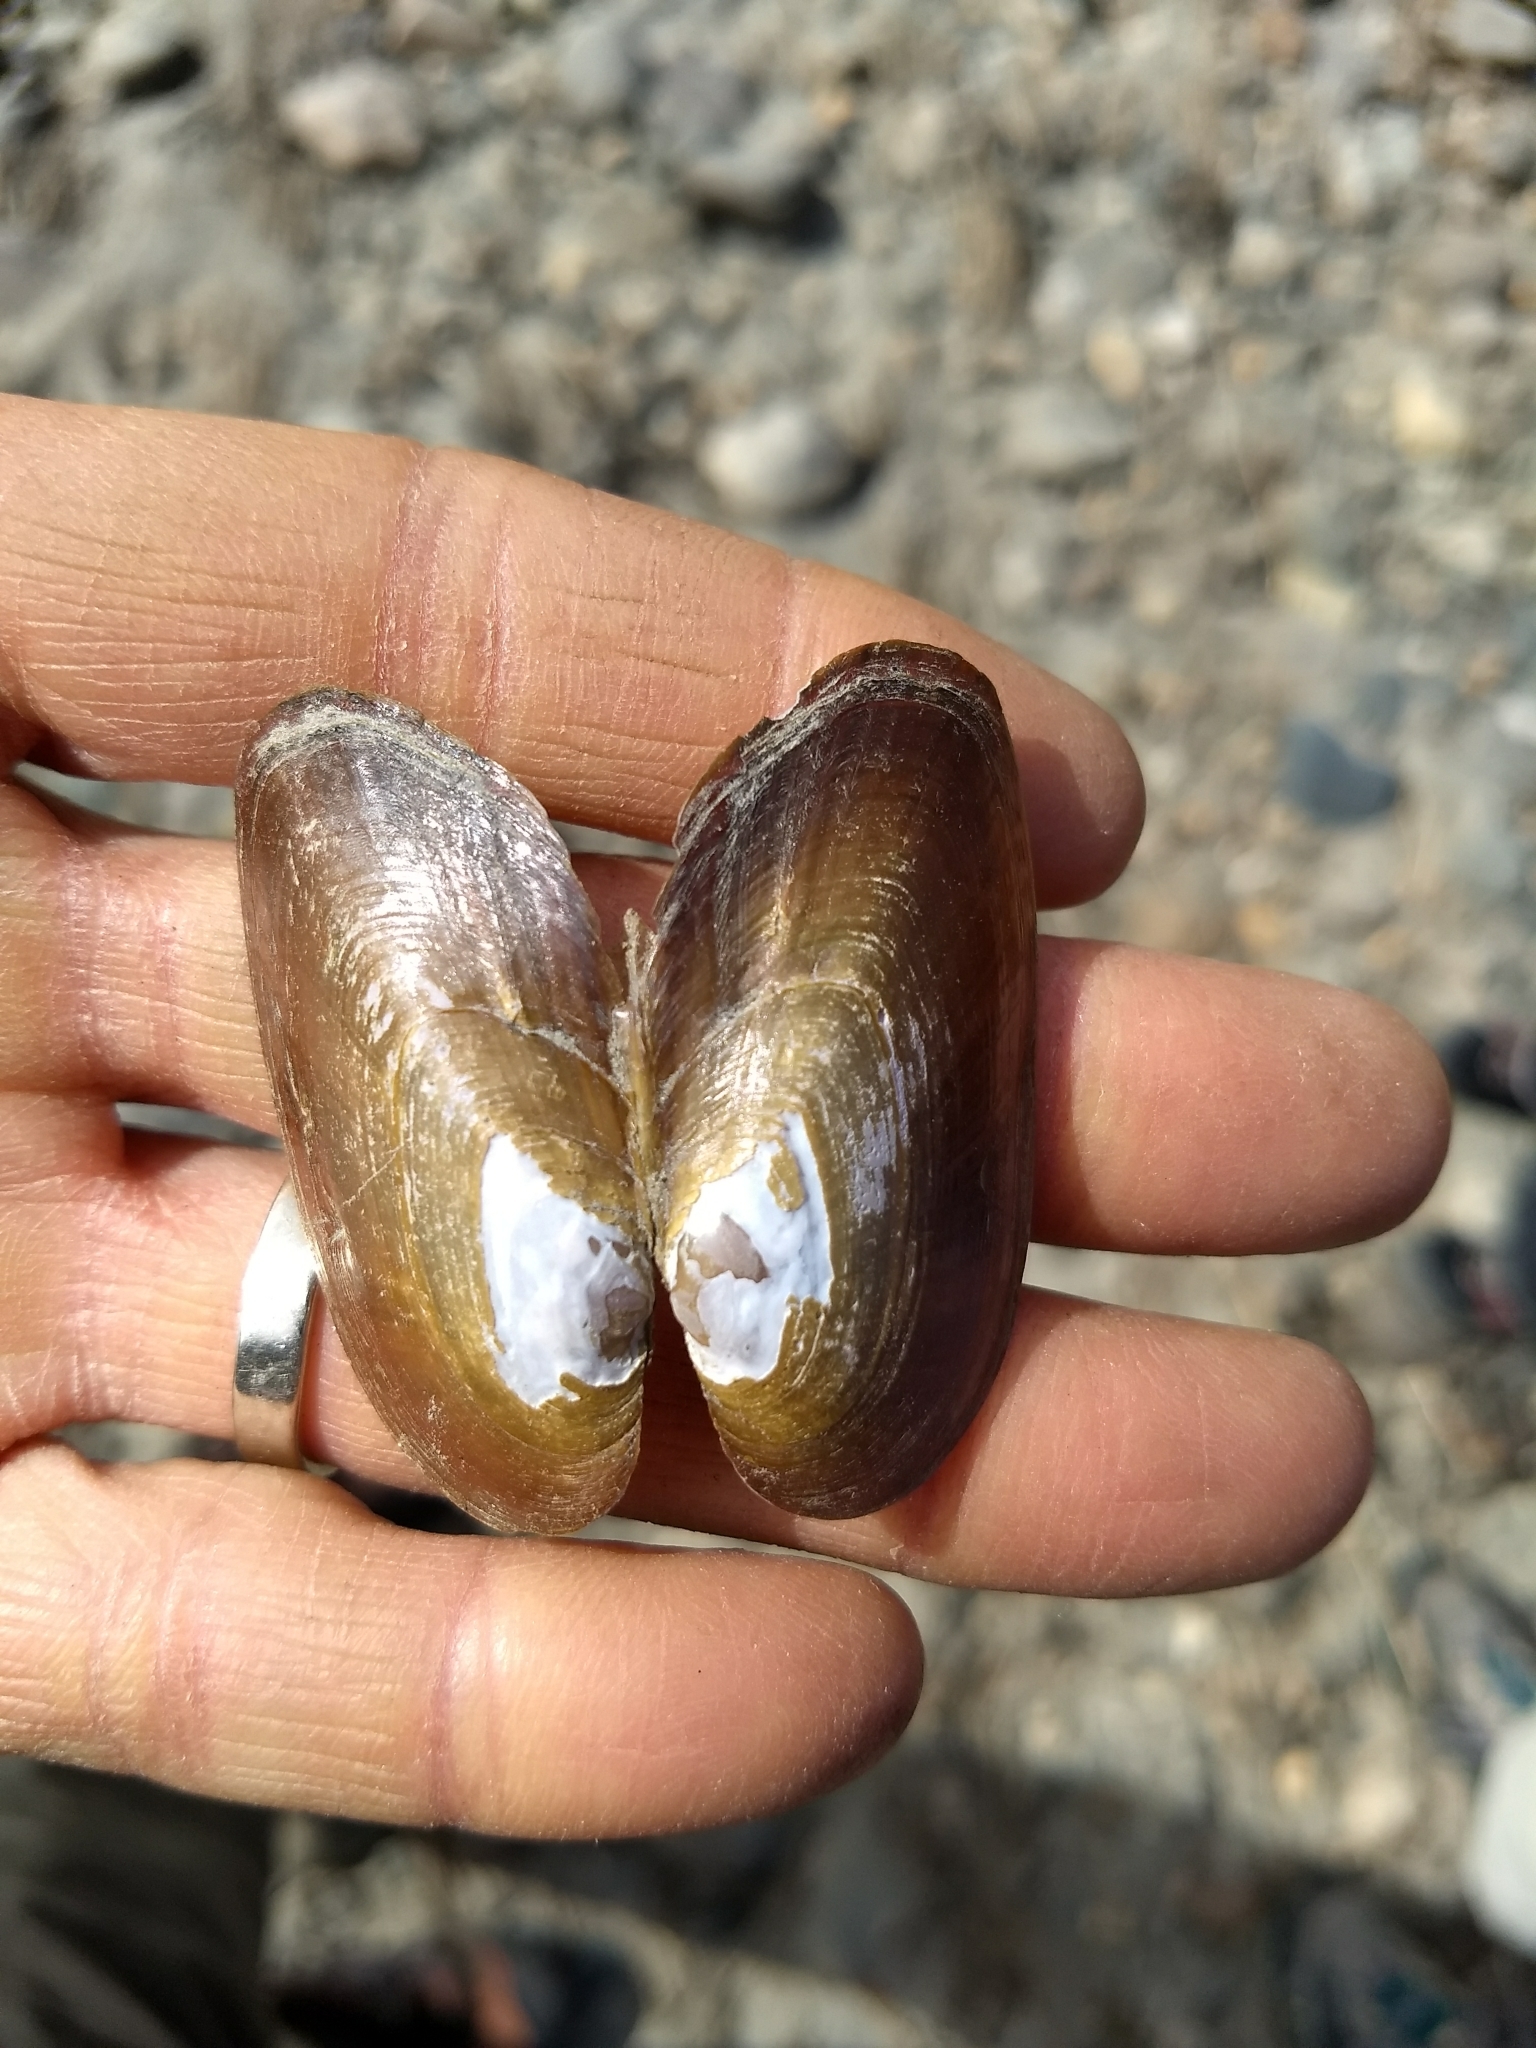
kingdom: Animalia
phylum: Mollusca
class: Bivalvia
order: Unionida
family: Unionidae
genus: Elliptio
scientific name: Elliptio complanata
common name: Eastern elliptio
